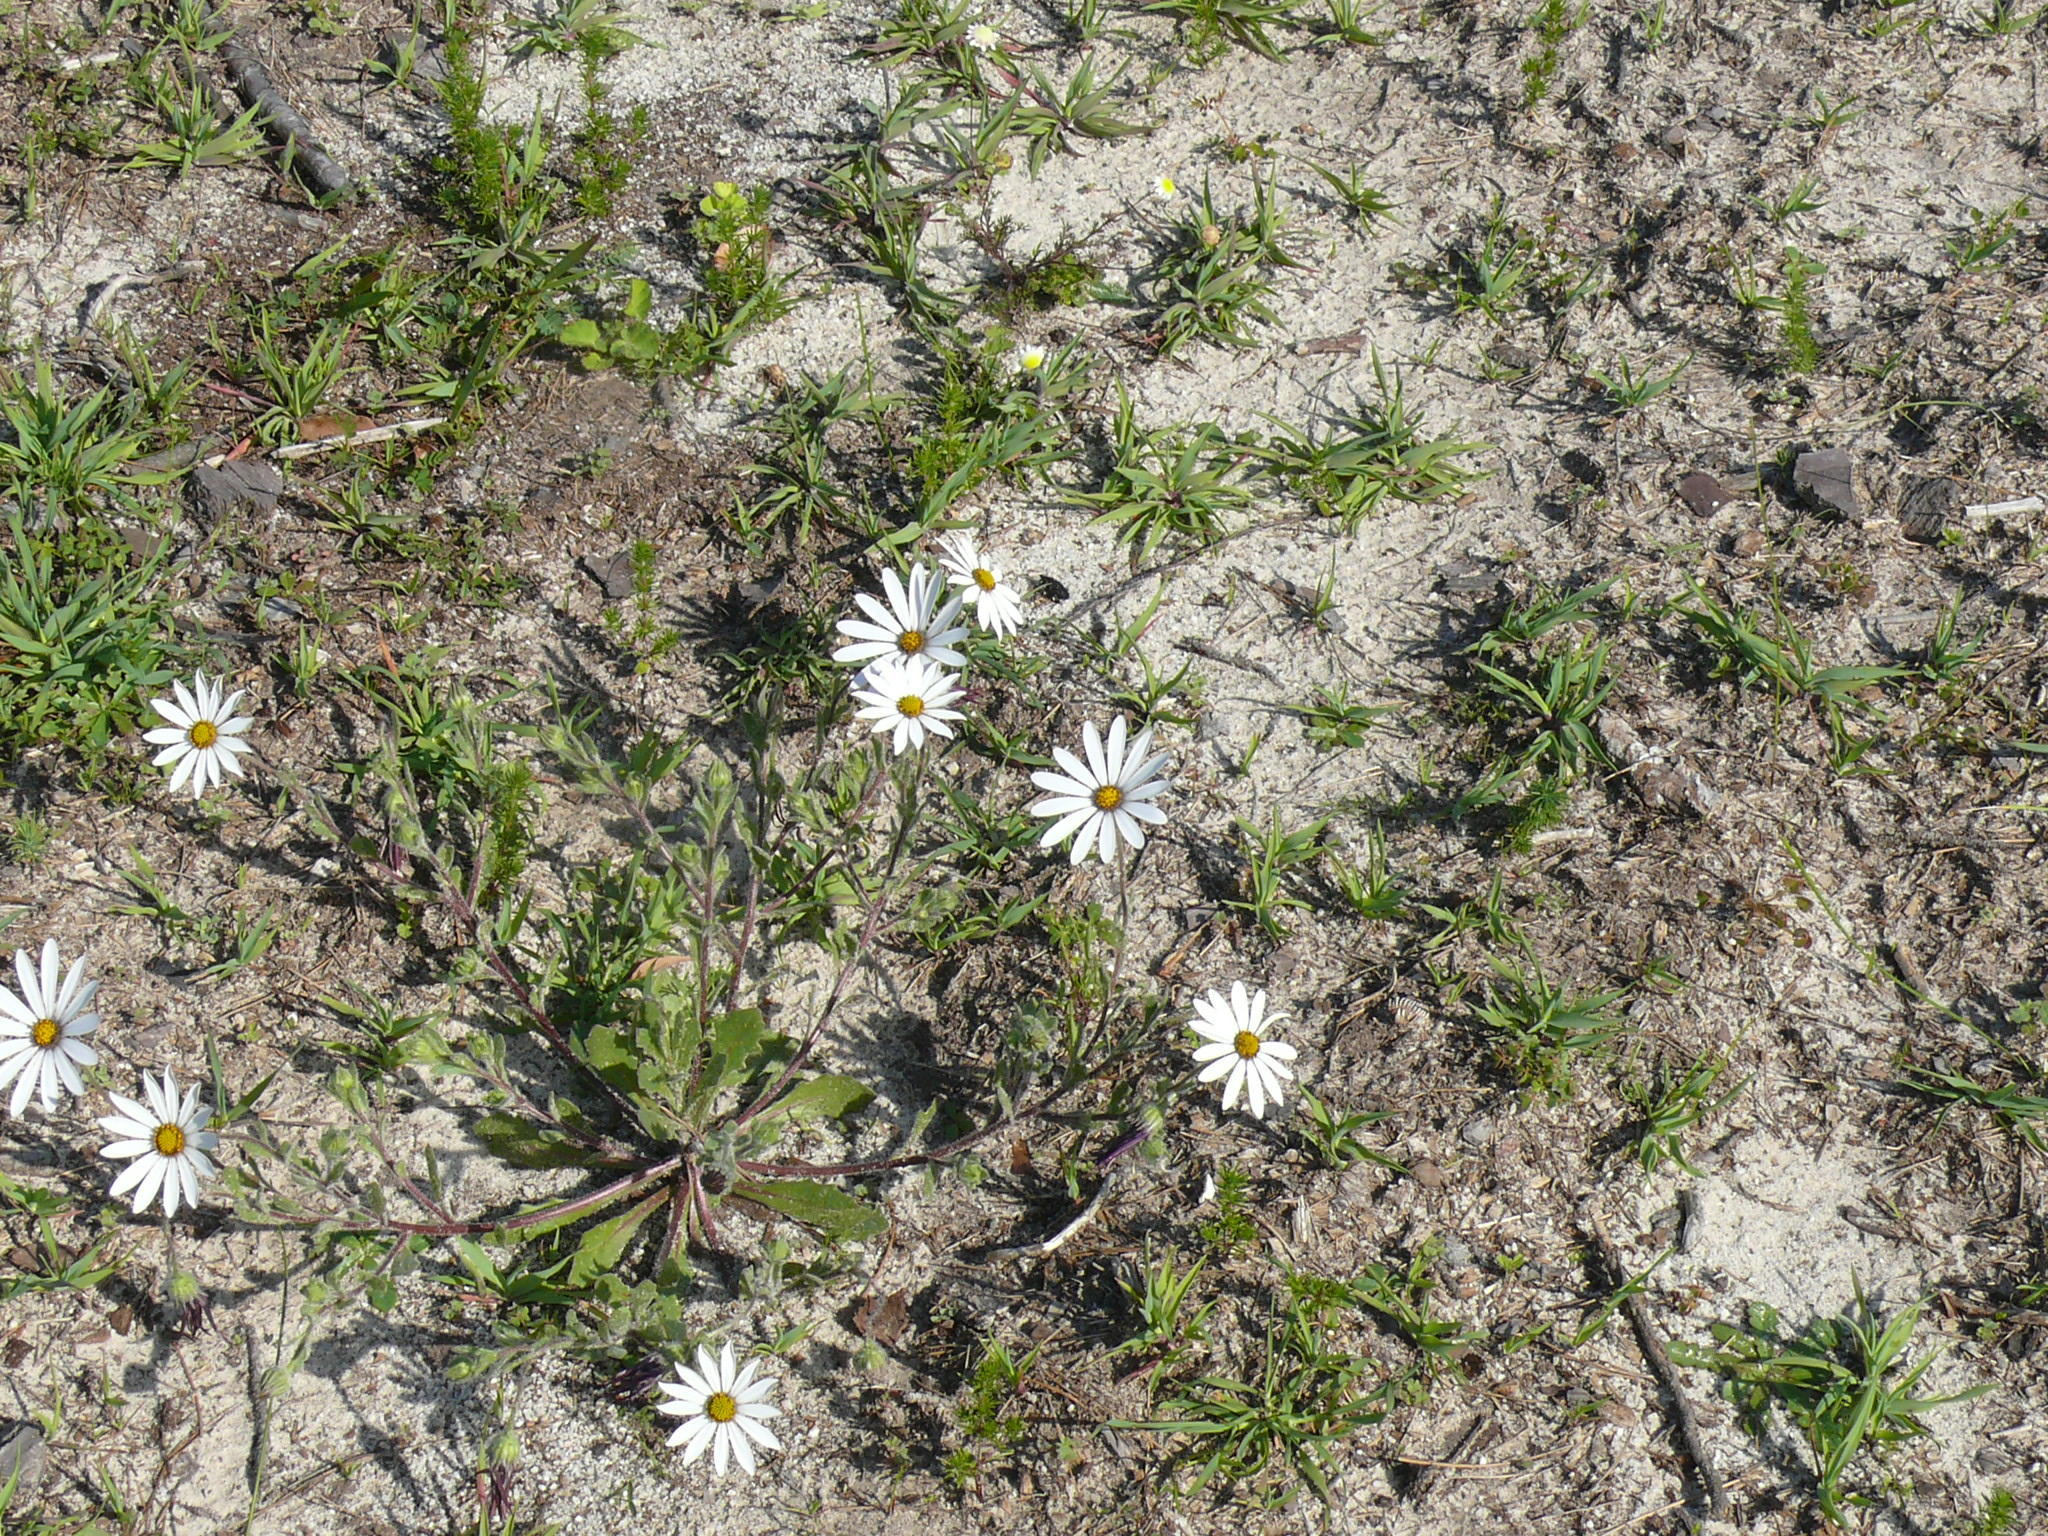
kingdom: Plantae
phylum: Tracheophyta
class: Magnoliopsida
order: Asterales
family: Asteraceae
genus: Dimorphotheca
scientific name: Dimorphotheca pluvialis
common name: Weather prophet
